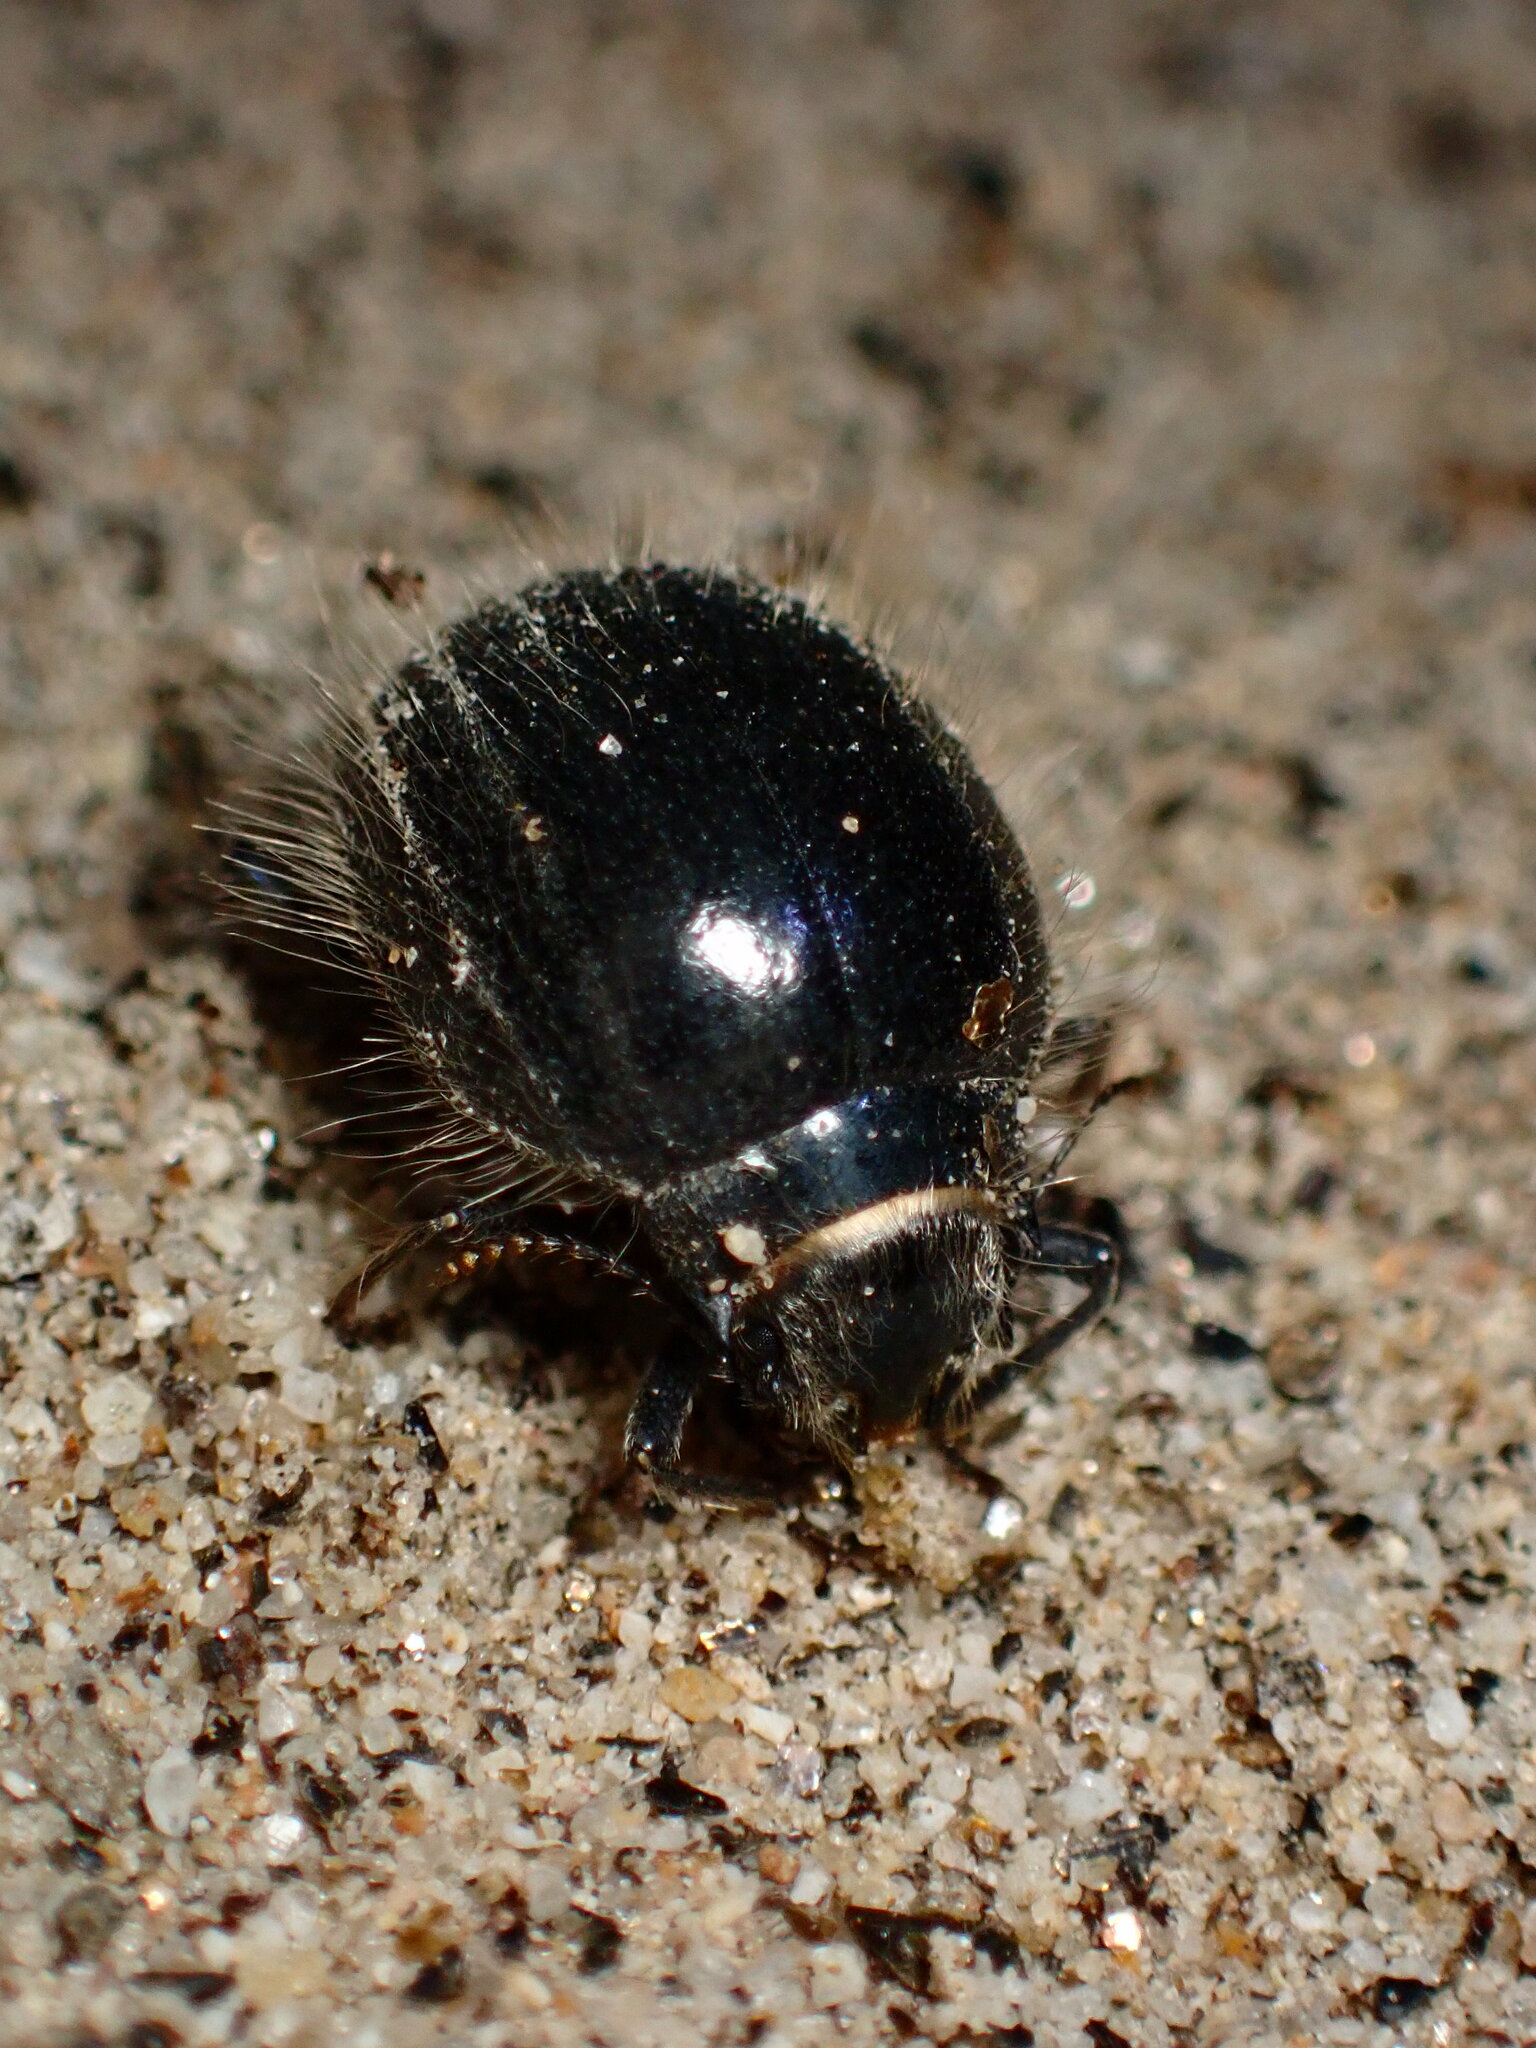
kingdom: Animalia
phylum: Arthropoda
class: Insecta
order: Coleoptera
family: Tenebrionidae
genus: Edrotes
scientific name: Edrotes ventricosus
